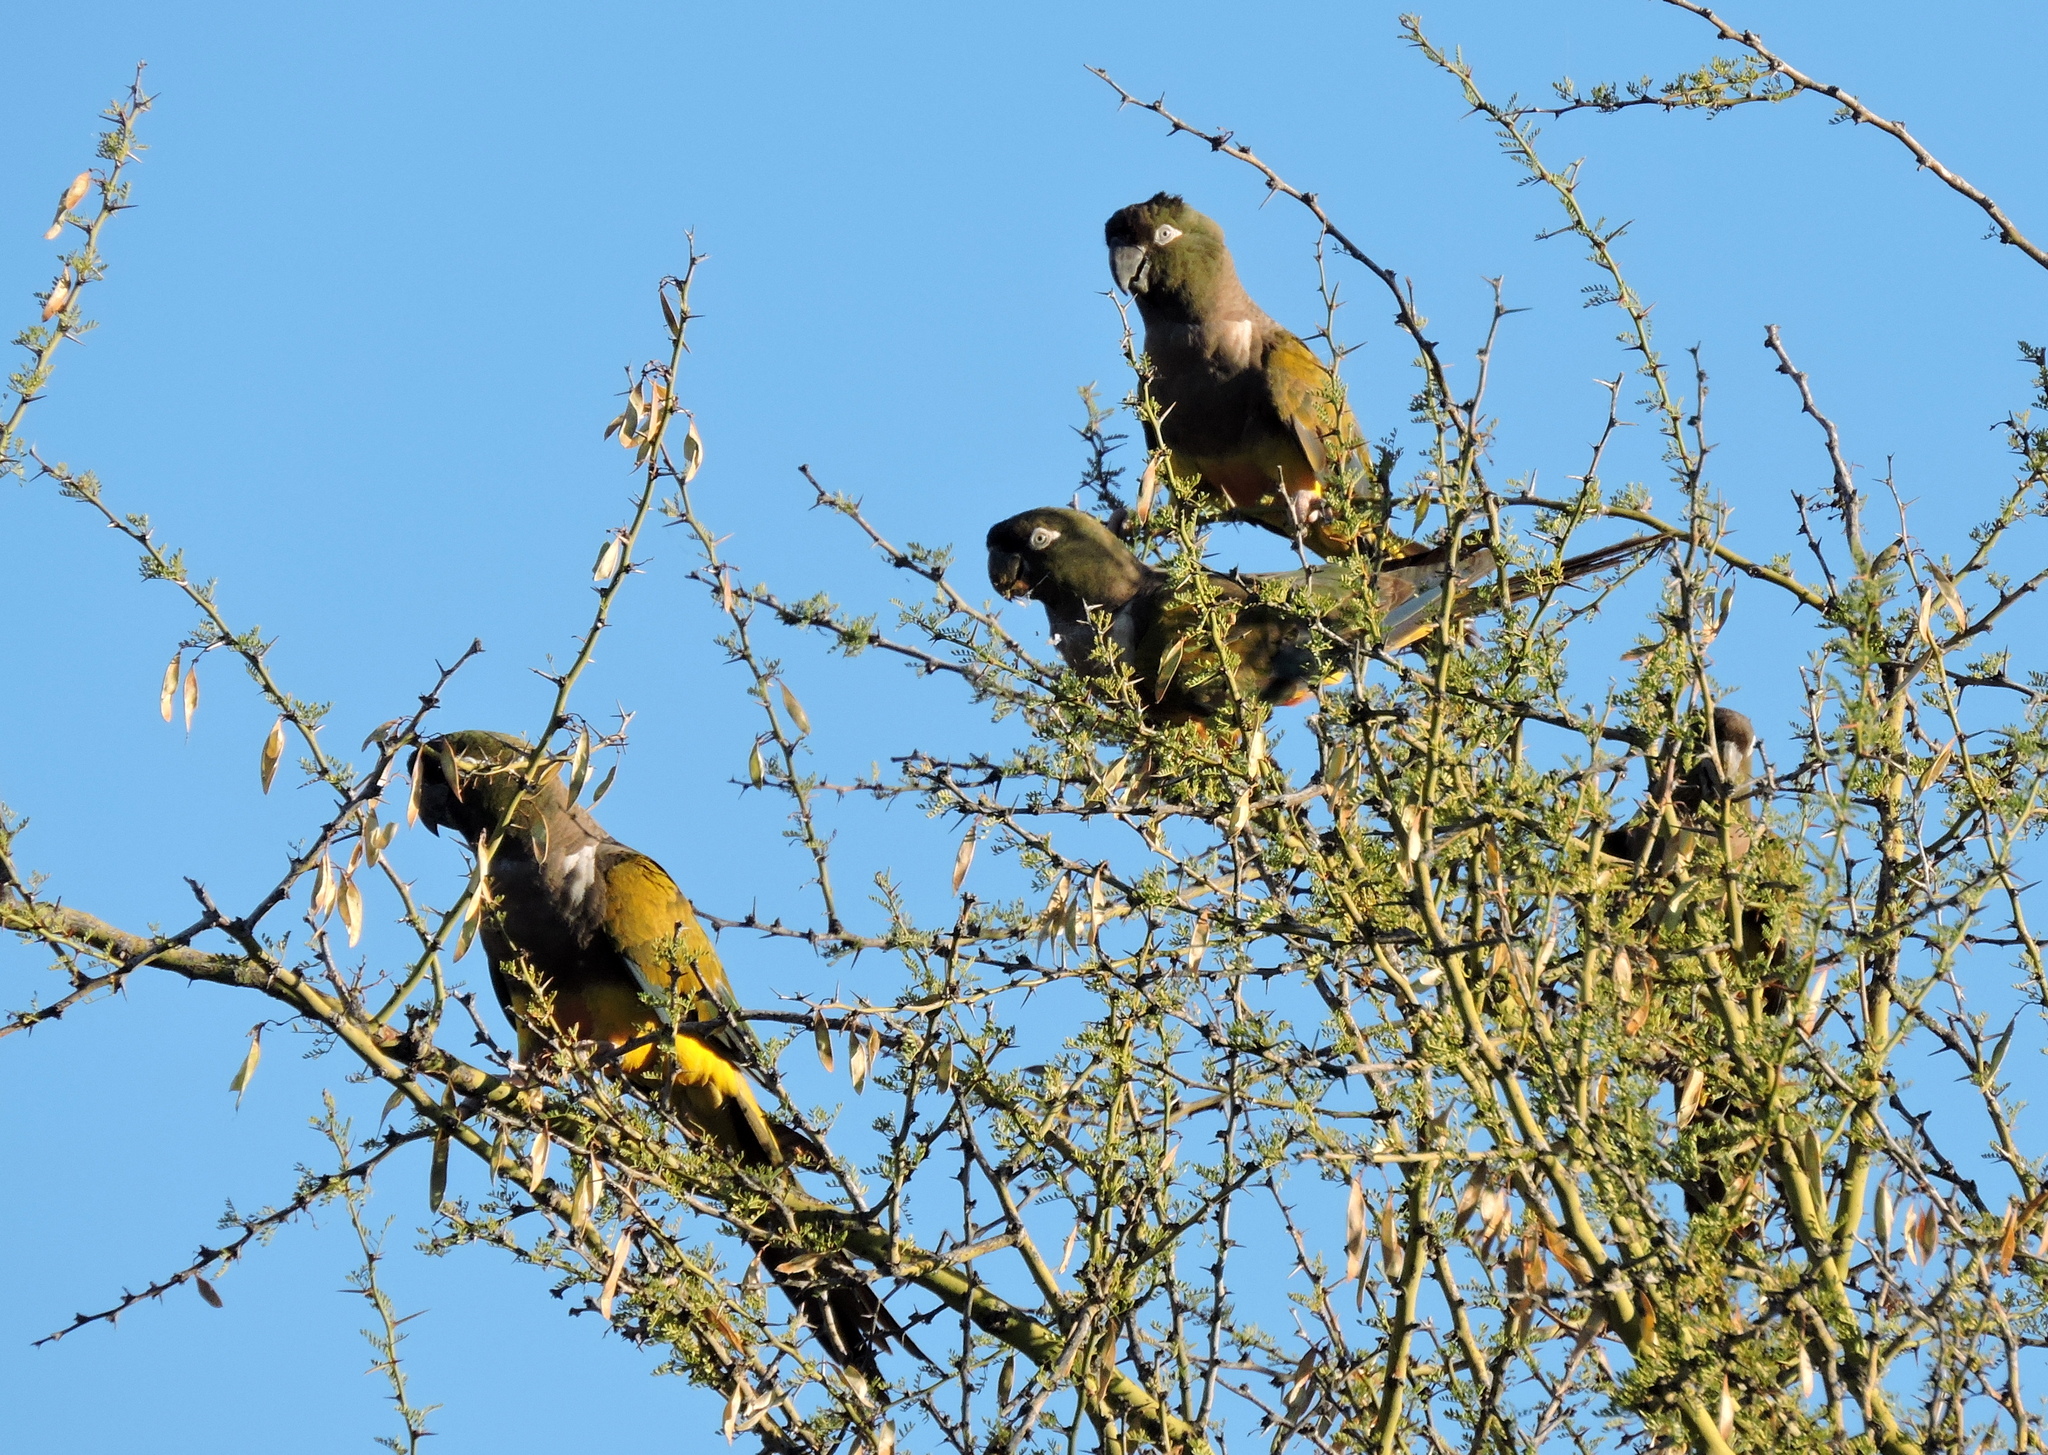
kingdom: Animalia
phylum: Chordata
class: Aves
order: Psittaciformes
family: Psittacidae
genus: Cyanoliseus
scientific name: Cyanoliseus patagonus
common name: Burrowing parrot
